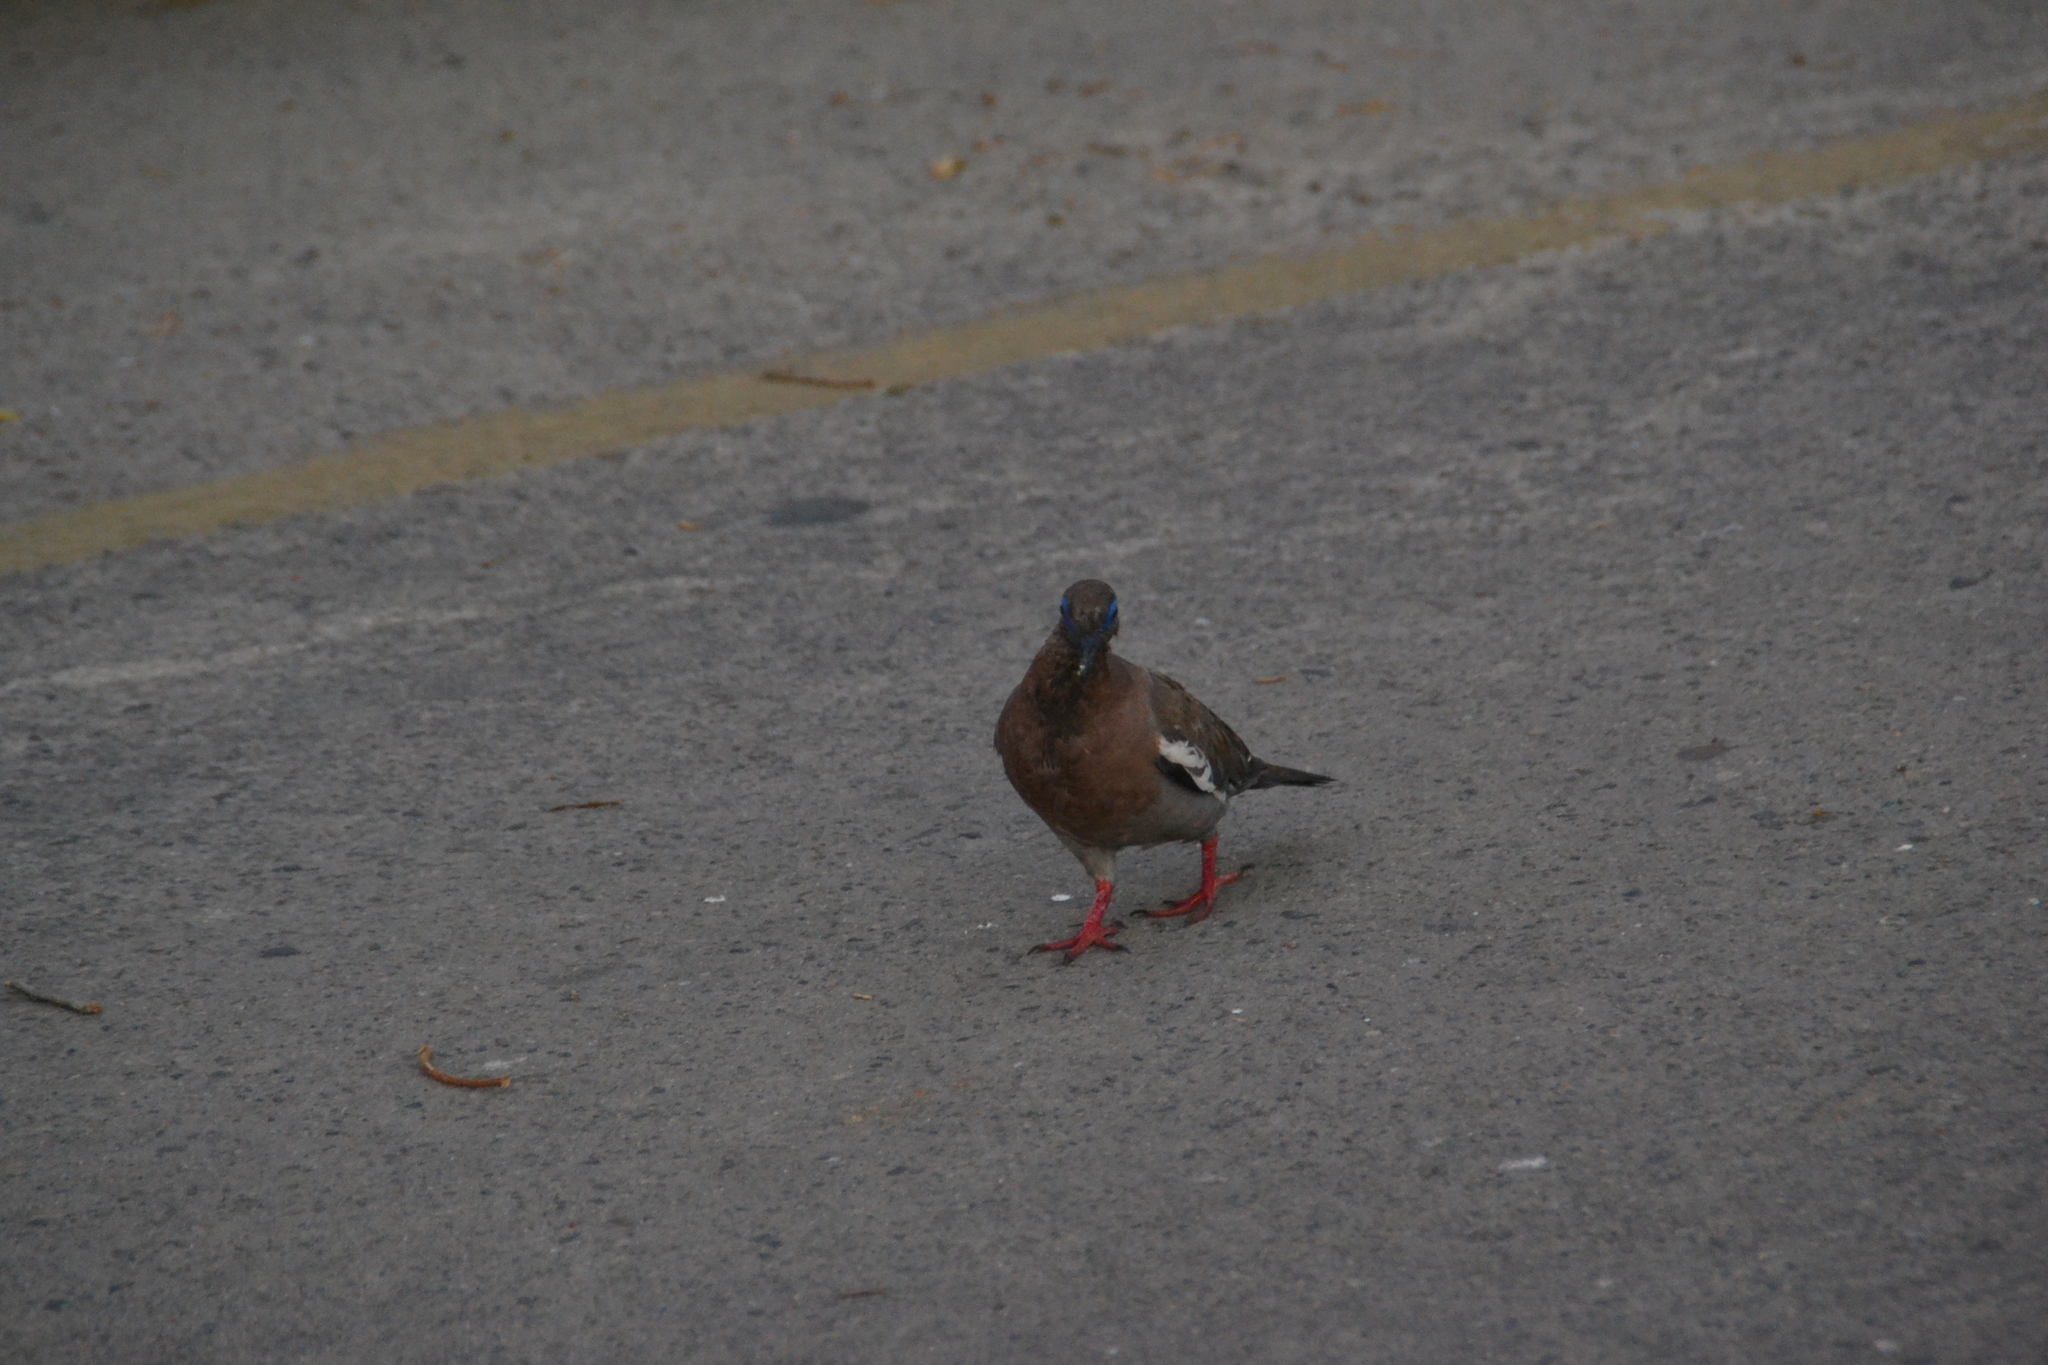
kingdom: Animalia
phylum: Chordata
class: Aves
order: Columbiformes
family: Columbidae
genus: Zenaida
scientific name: Zenaida meloda
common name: West peruvian dove
